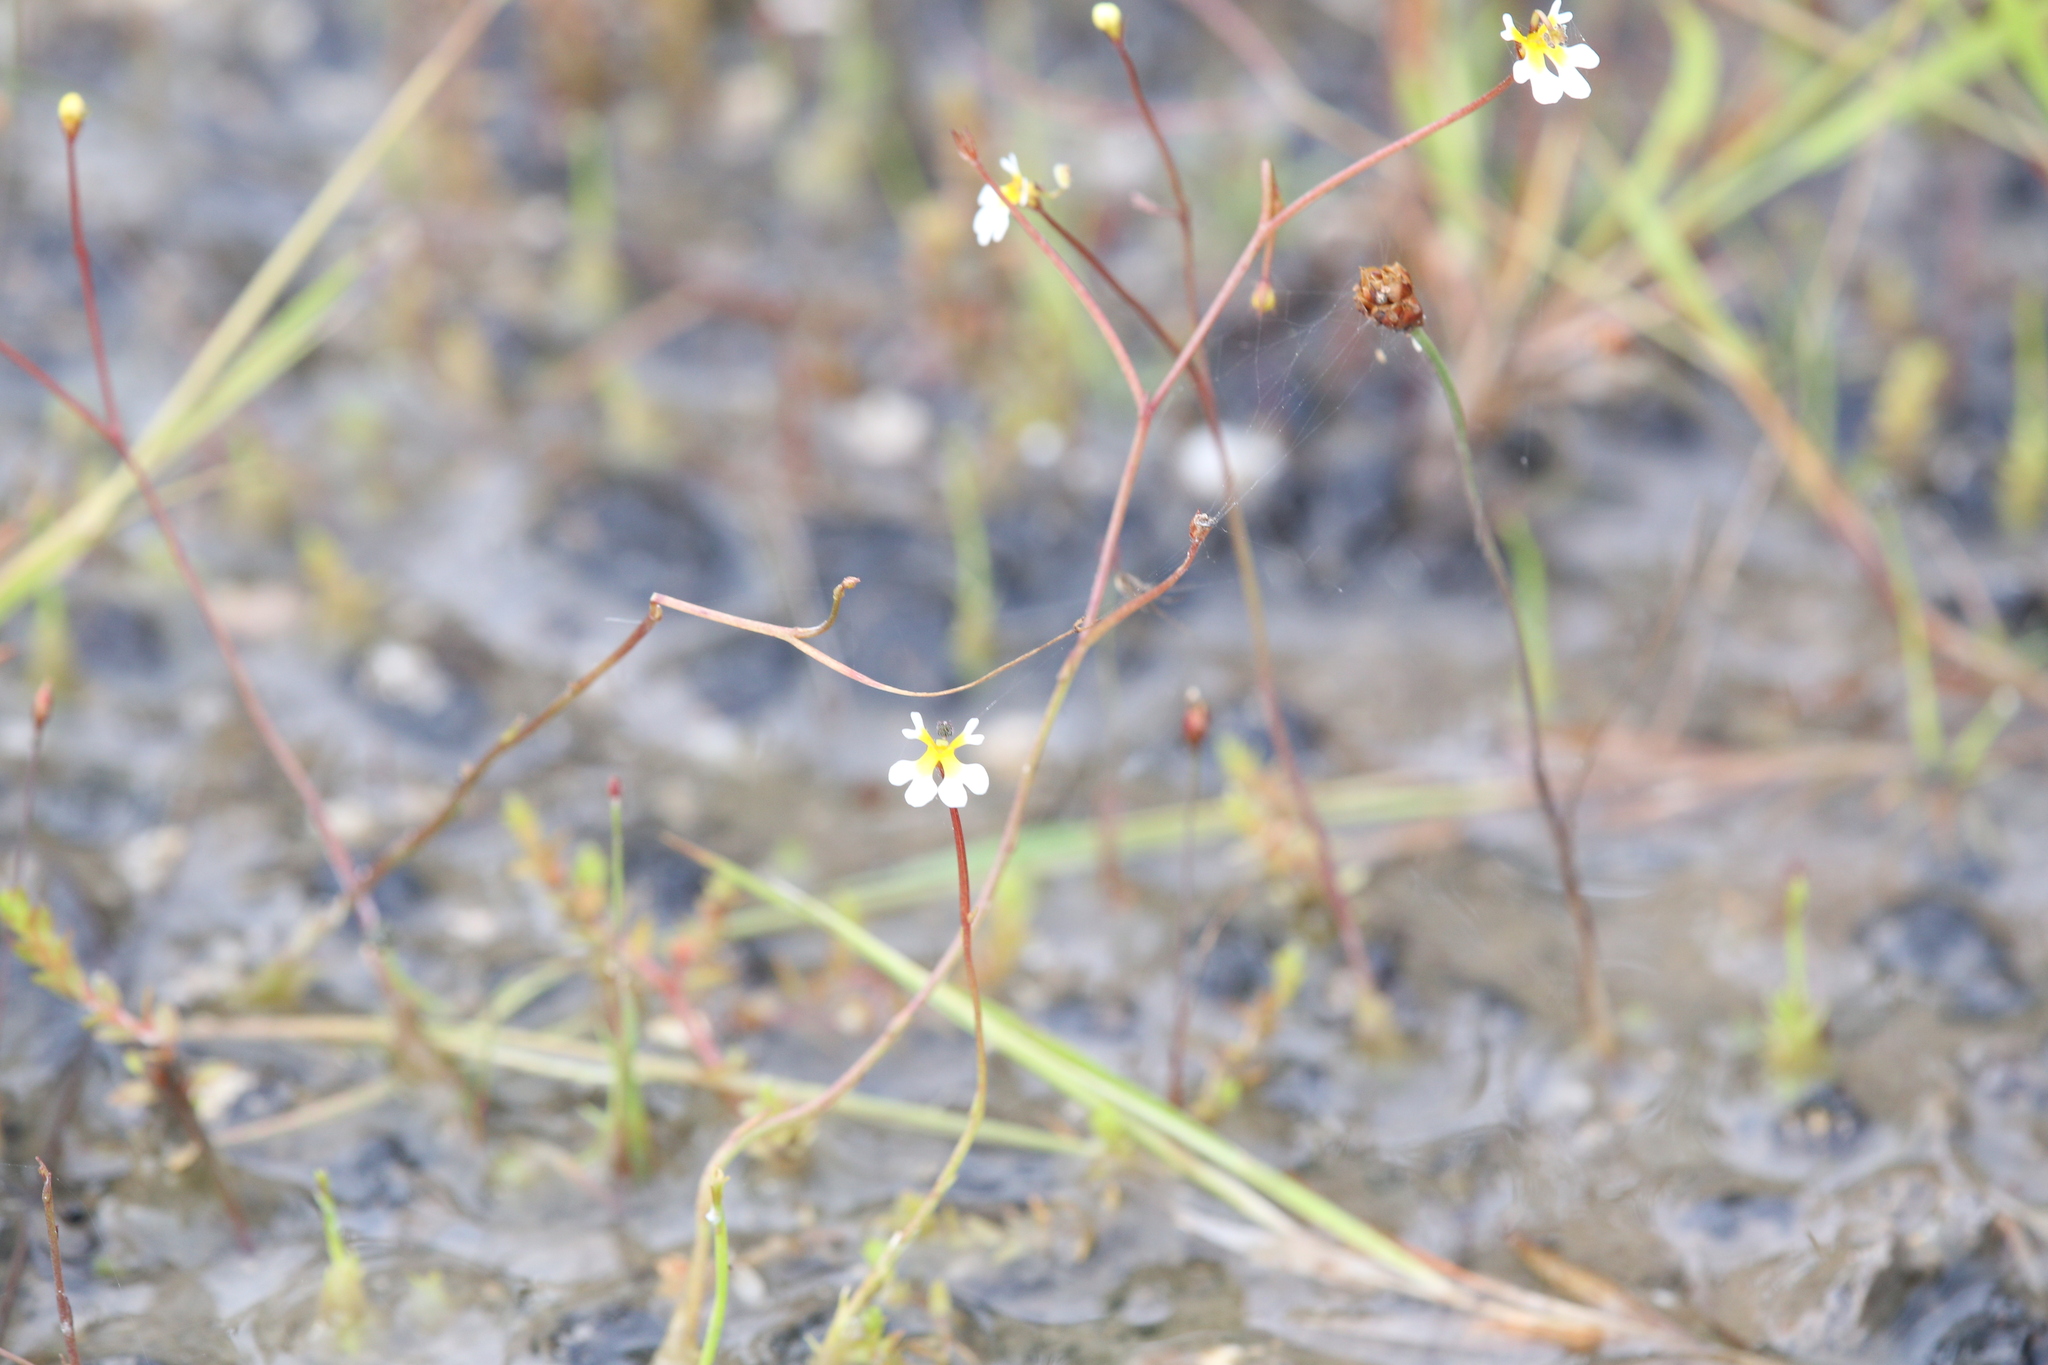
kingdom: Plantae
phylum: Tracheophyta
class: Magnoliopsida
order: Asterales
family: Stylidiaceae
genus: Stylidium
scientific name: Stylidium oviflorum
